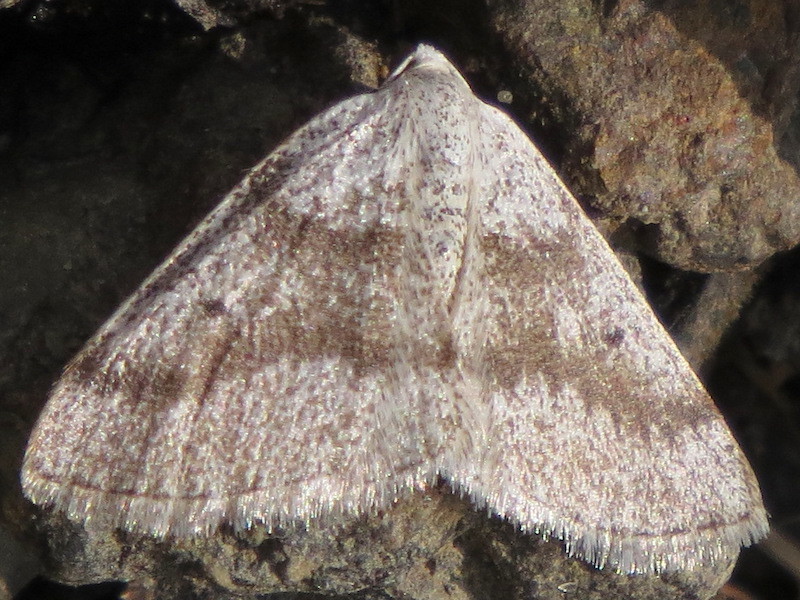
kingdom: Animalia
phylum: Arthropoda
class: Insecta
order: Lepidoptera
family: Geometridae
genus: Lomographa
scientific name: Lomographa glomeraria
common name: Gray spring moth
